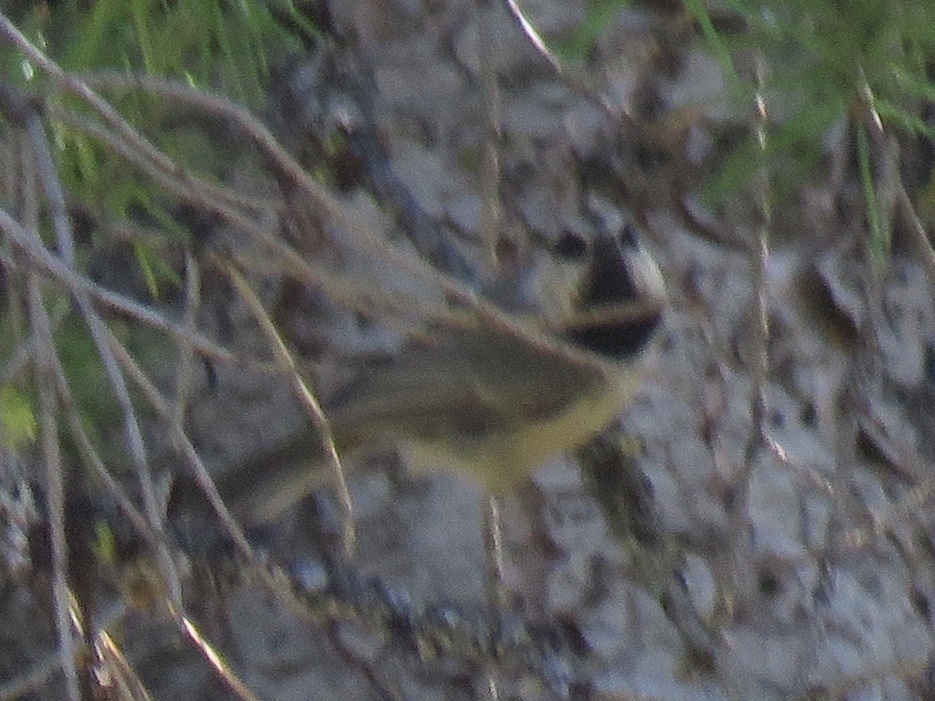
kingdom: Animalia
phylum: Chordata
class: Aves
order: Passeriformes
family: Paridae
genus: Poecile
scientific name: Poecile gambeli
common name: Mountain chickadee
